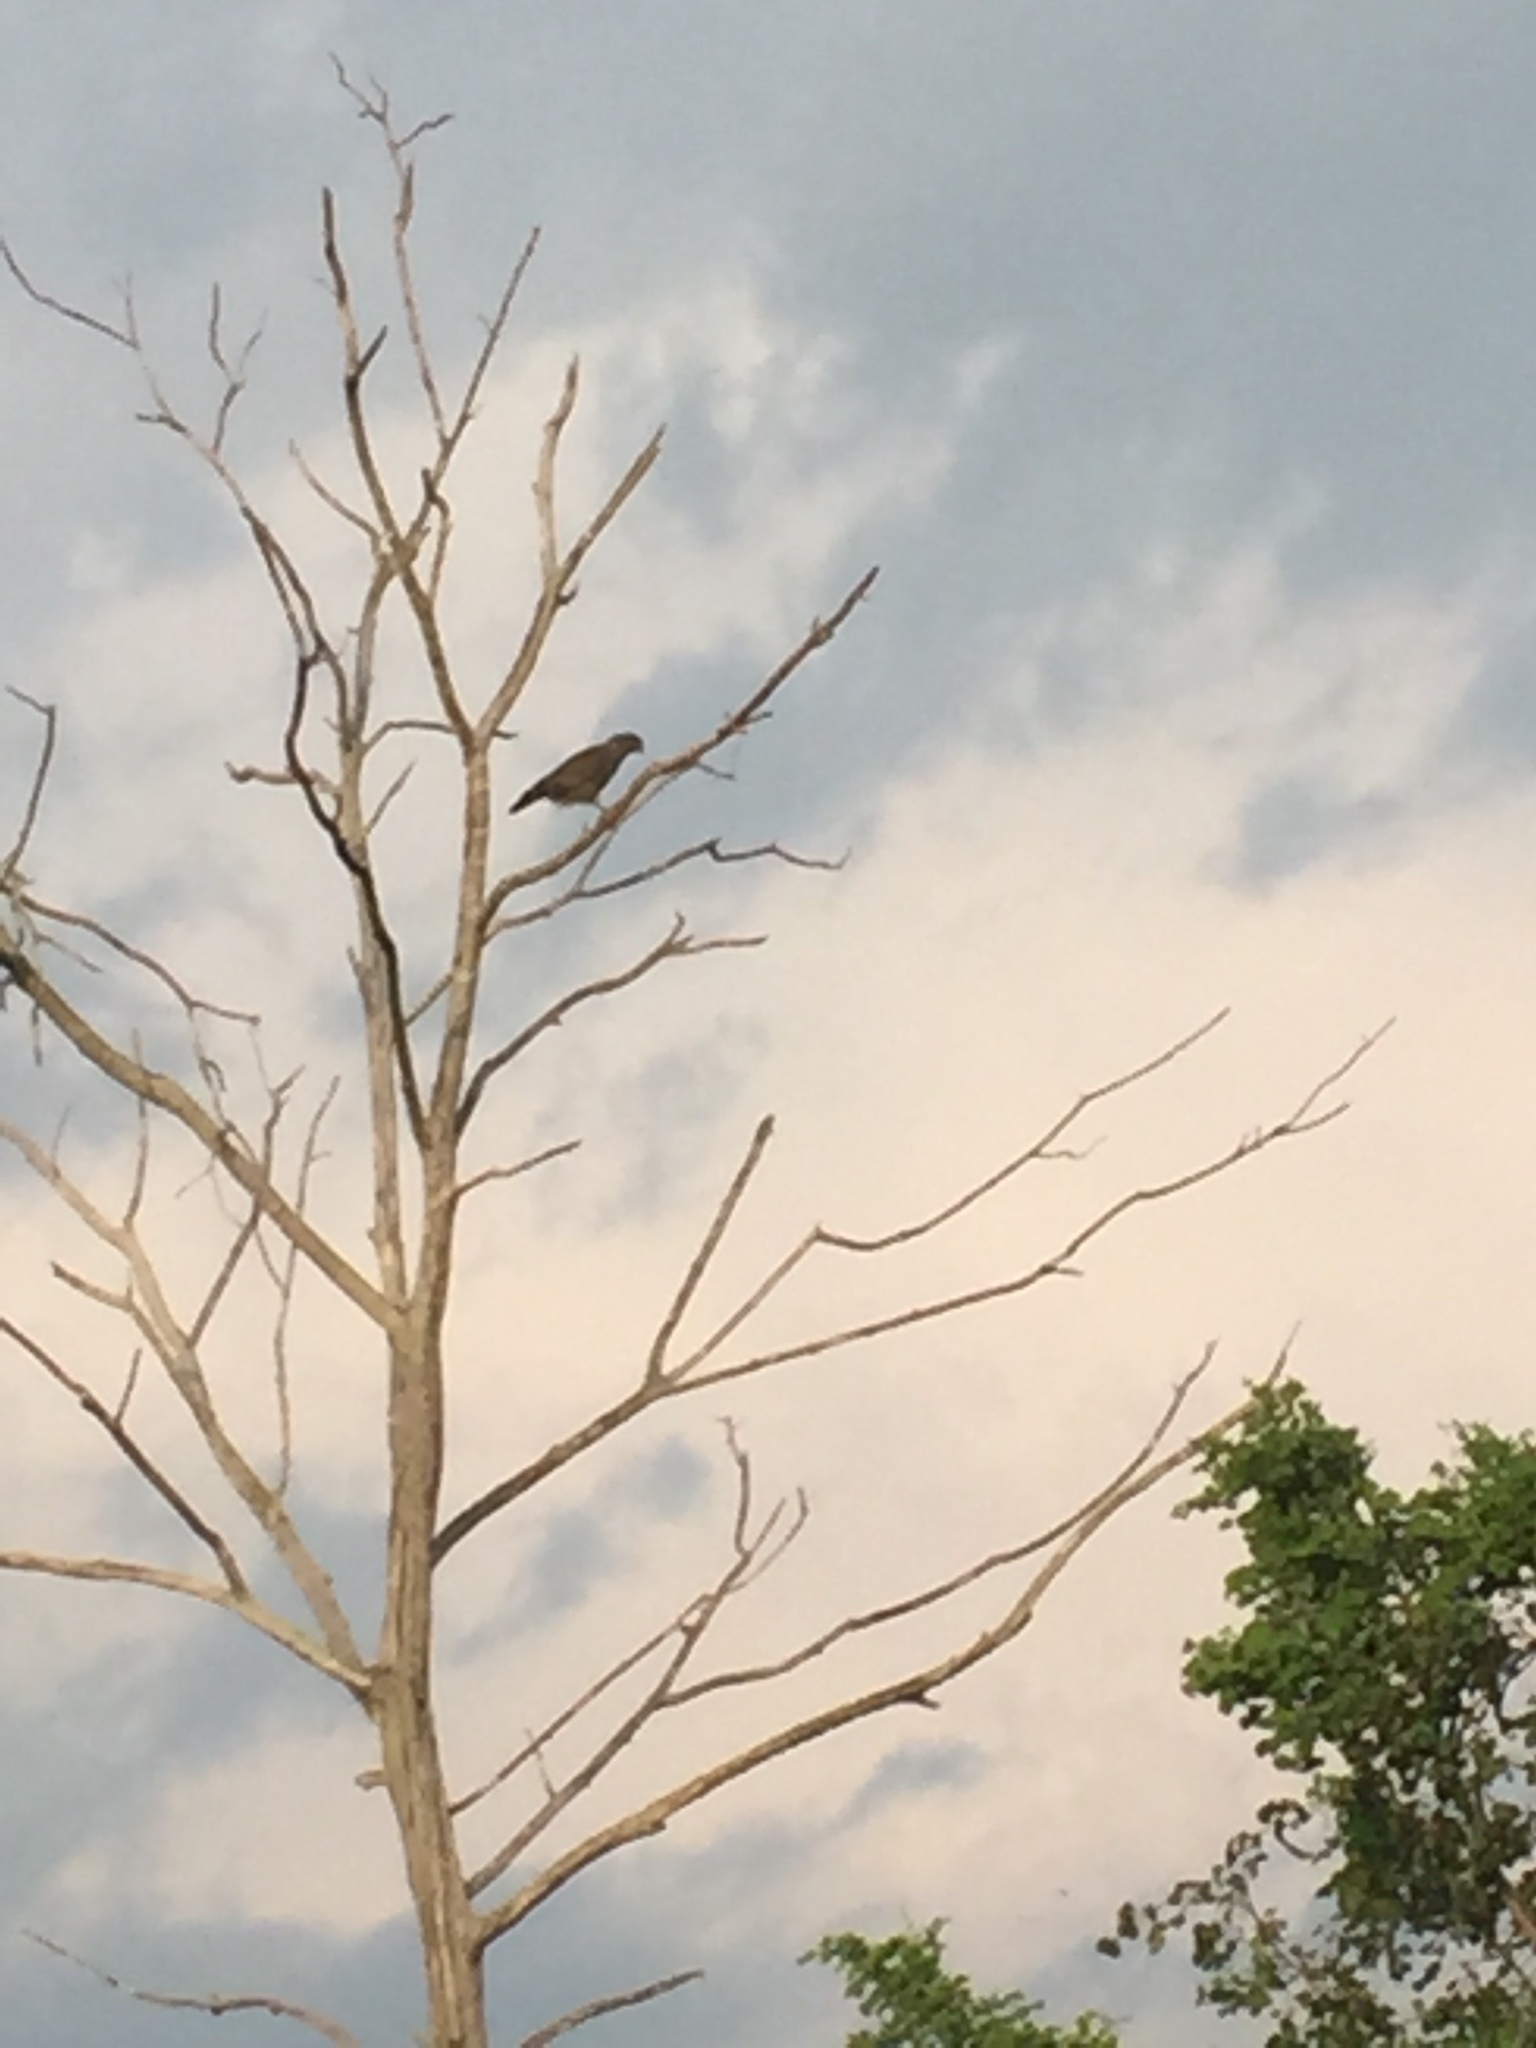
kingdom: Animalia
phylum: Chordata
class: Aves
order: Accipitriformes
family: Accipitridae
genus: Spilornis
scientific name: Spilornis cheela
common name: Crested serpent eagle
